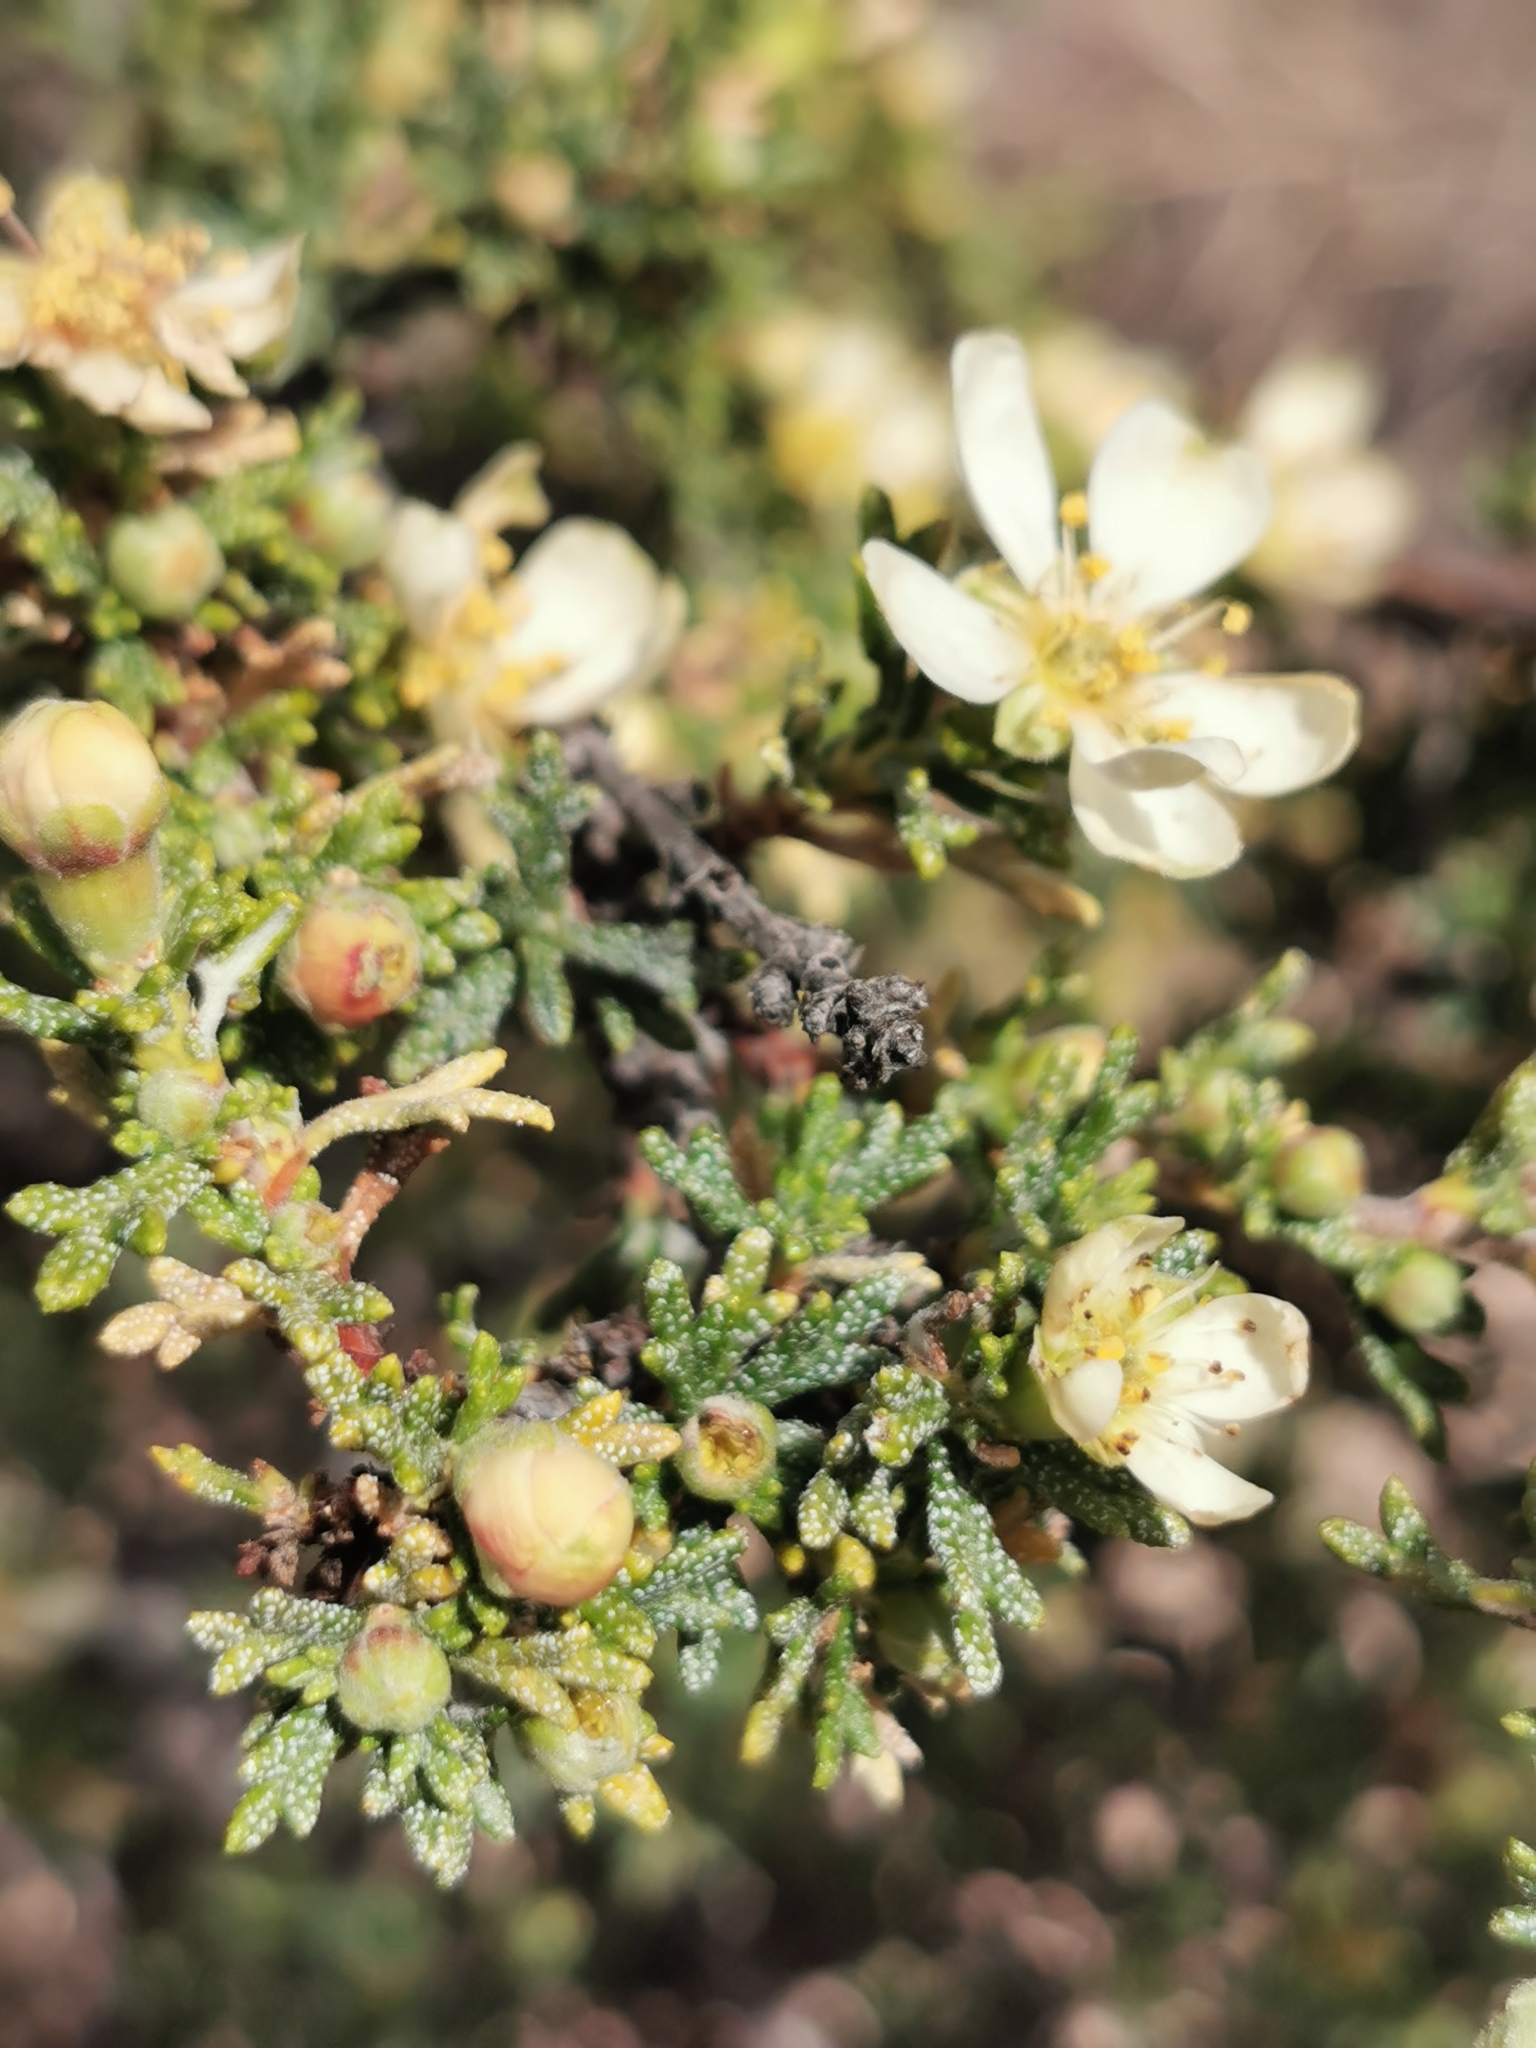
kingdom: Plantae
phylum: Tracheophyta
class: Magnoliopsida
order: Rosales
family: Rosaceae
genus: Purshia
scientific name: Purshia mexicana
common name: Mexican cliffrose
